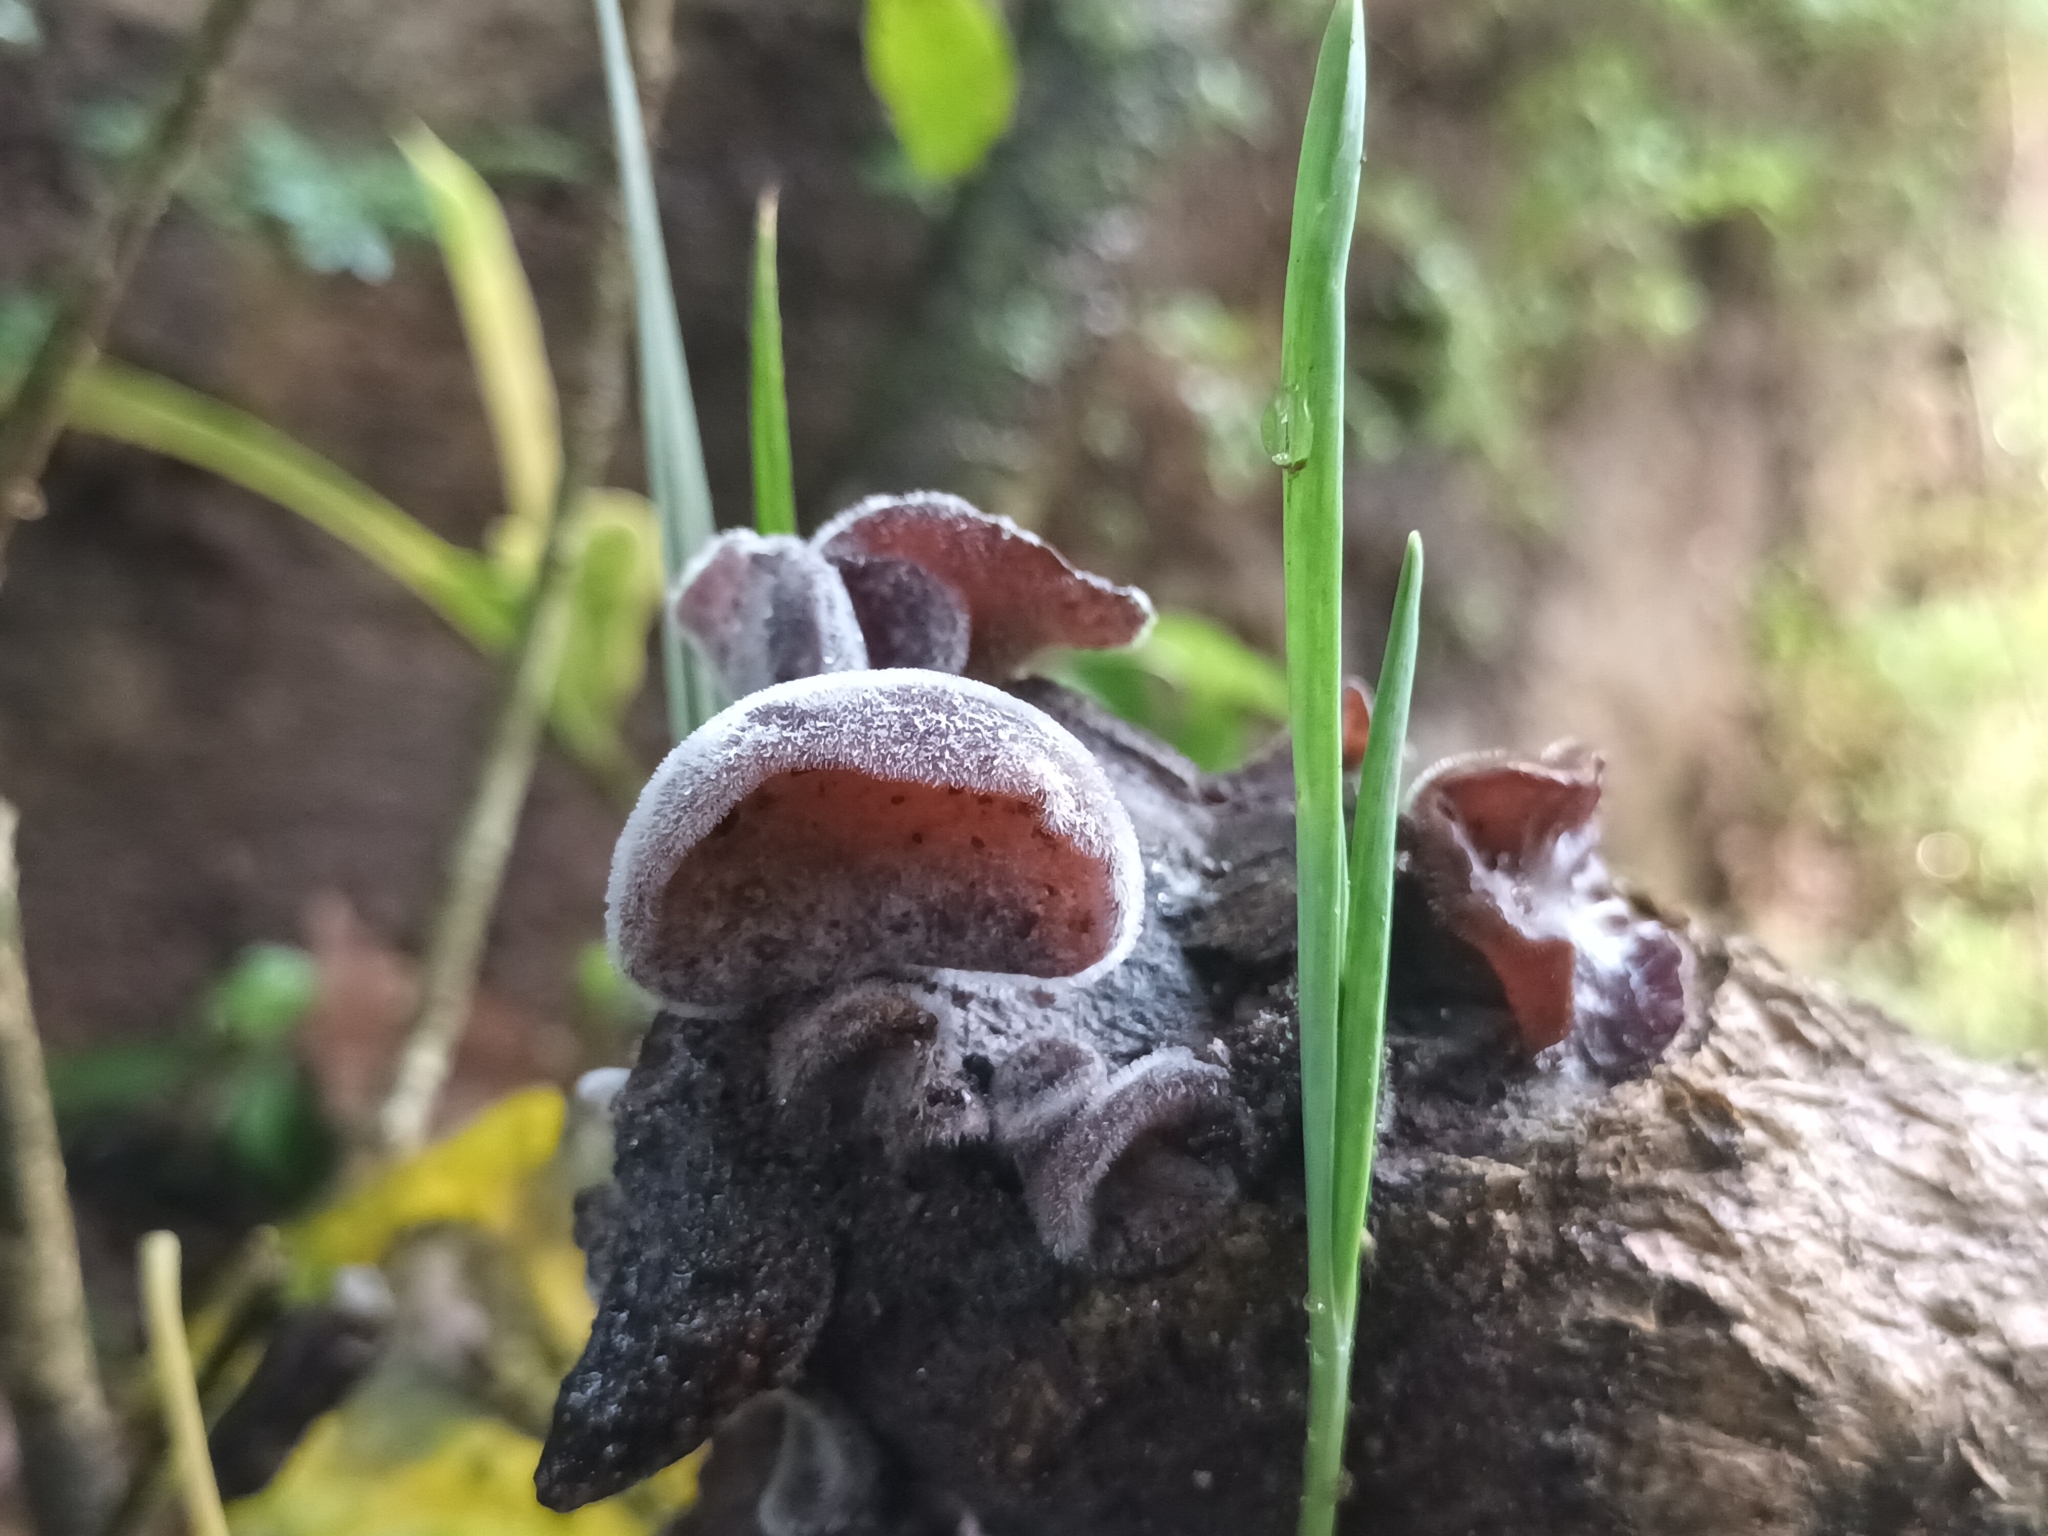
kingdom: Fungi
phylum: Basidiomycota
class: Agaricomycetes
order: Auriculariales
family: Auriculariaceae
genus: Auricularia
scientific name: Auricularia nigricans
